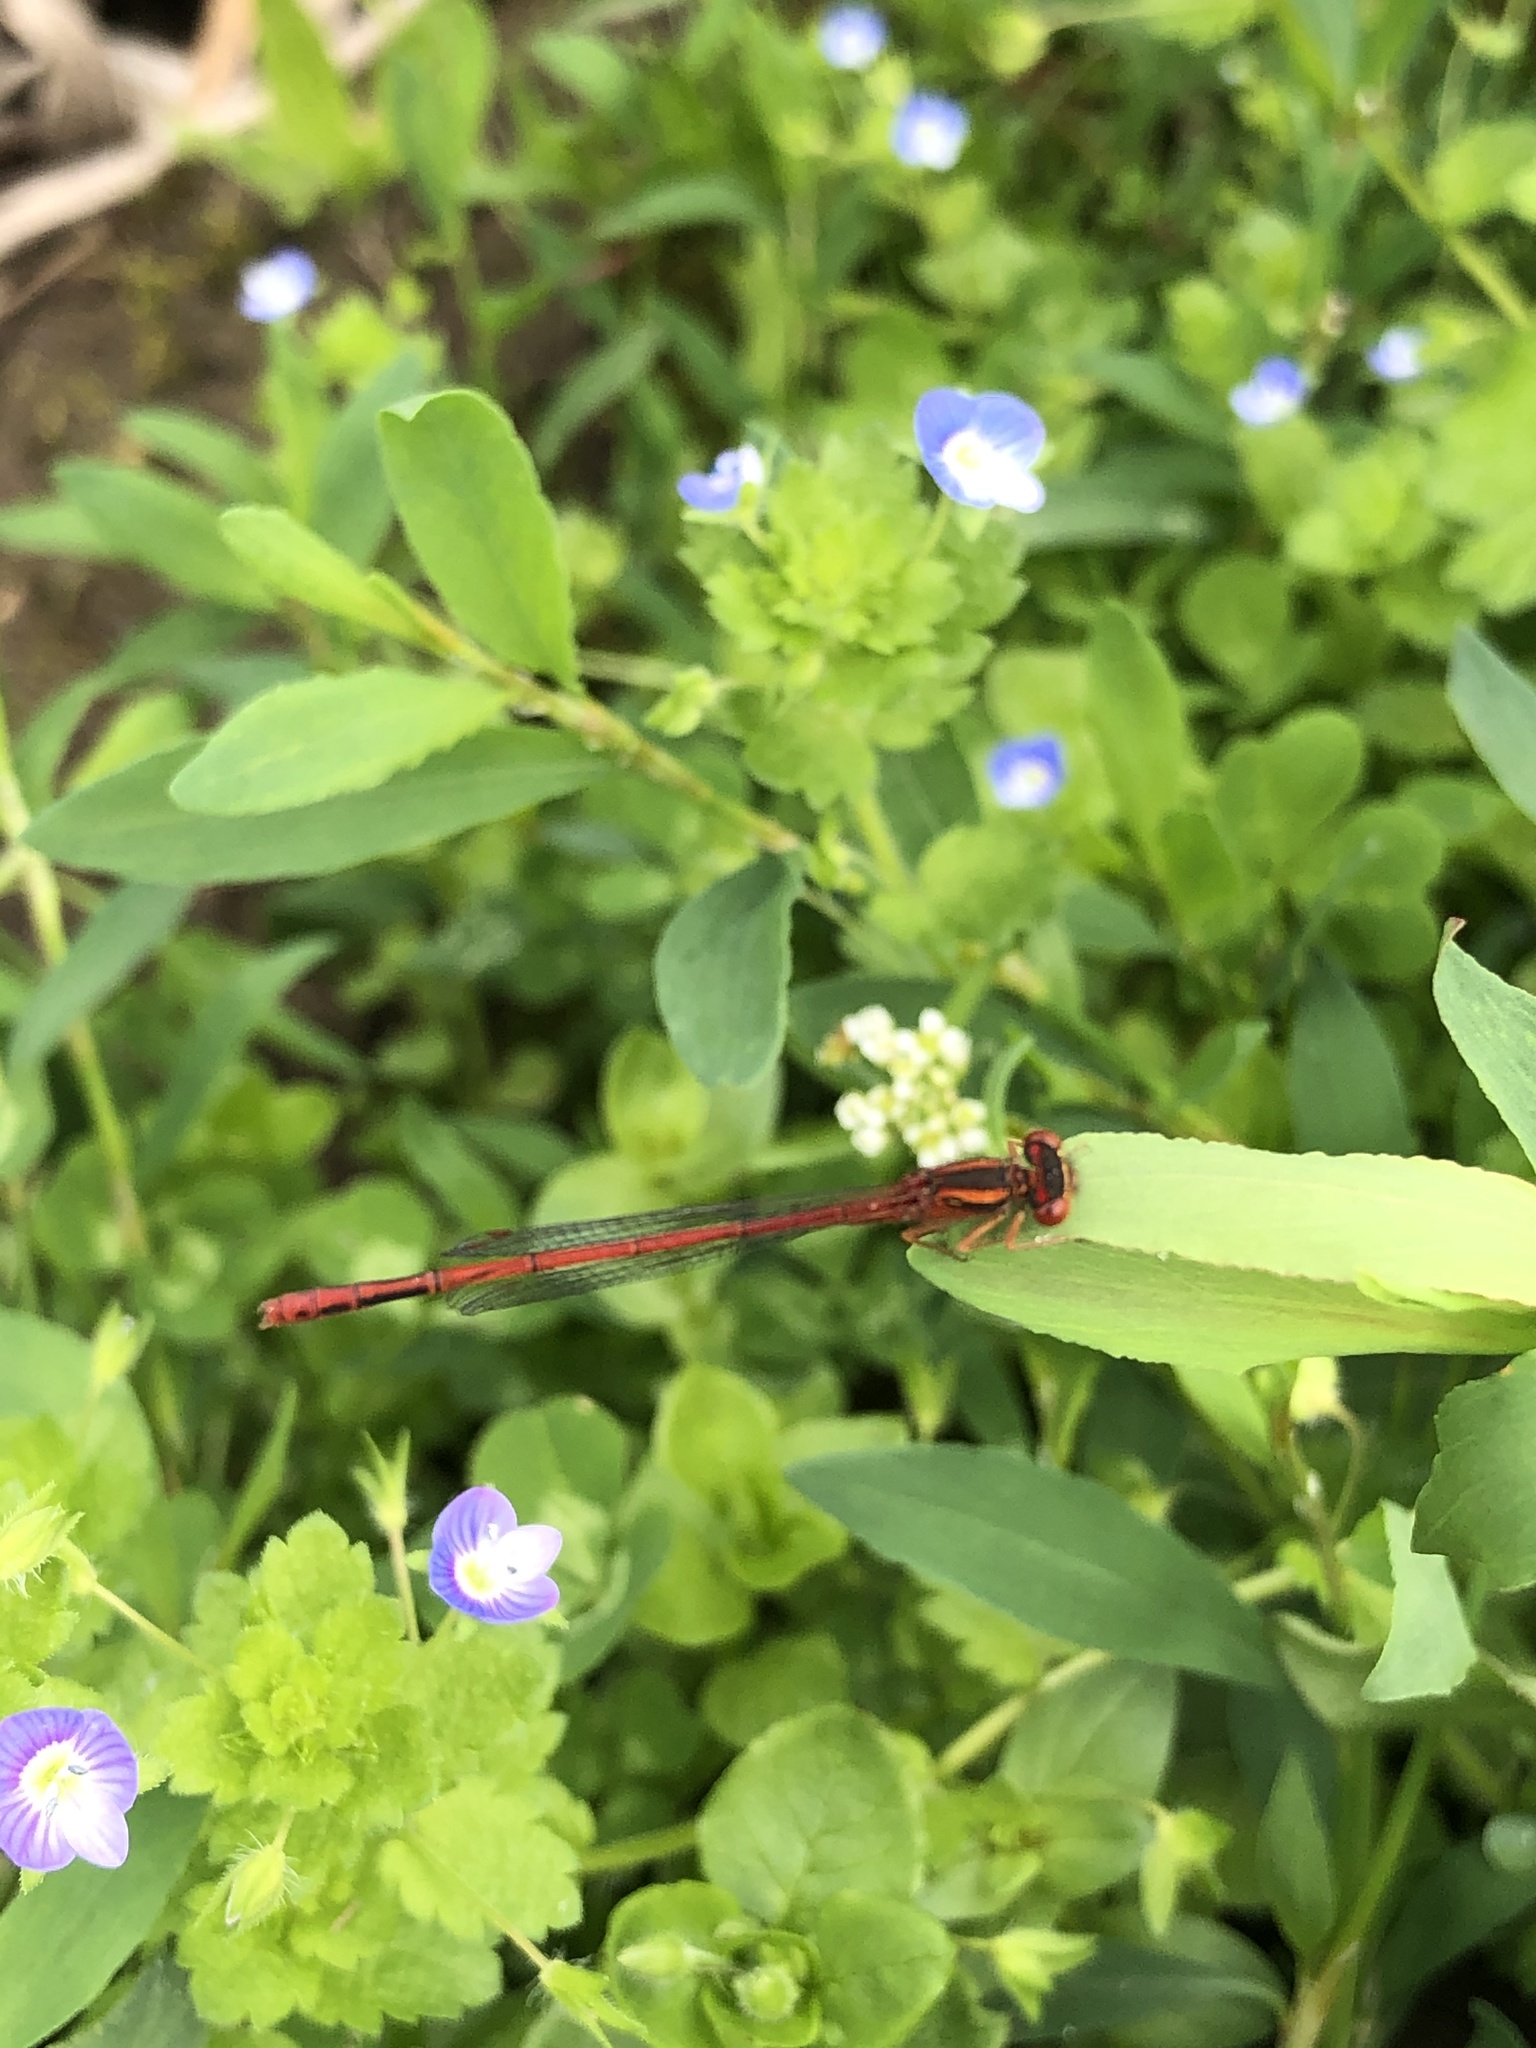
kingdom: Animalia
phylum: Arthropoda
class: Insecta
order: Odonata
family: Coenagrionidae
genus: Xanthocnemis
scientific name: Xanthocnemis zealandica
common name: Common redcoat damselfly
